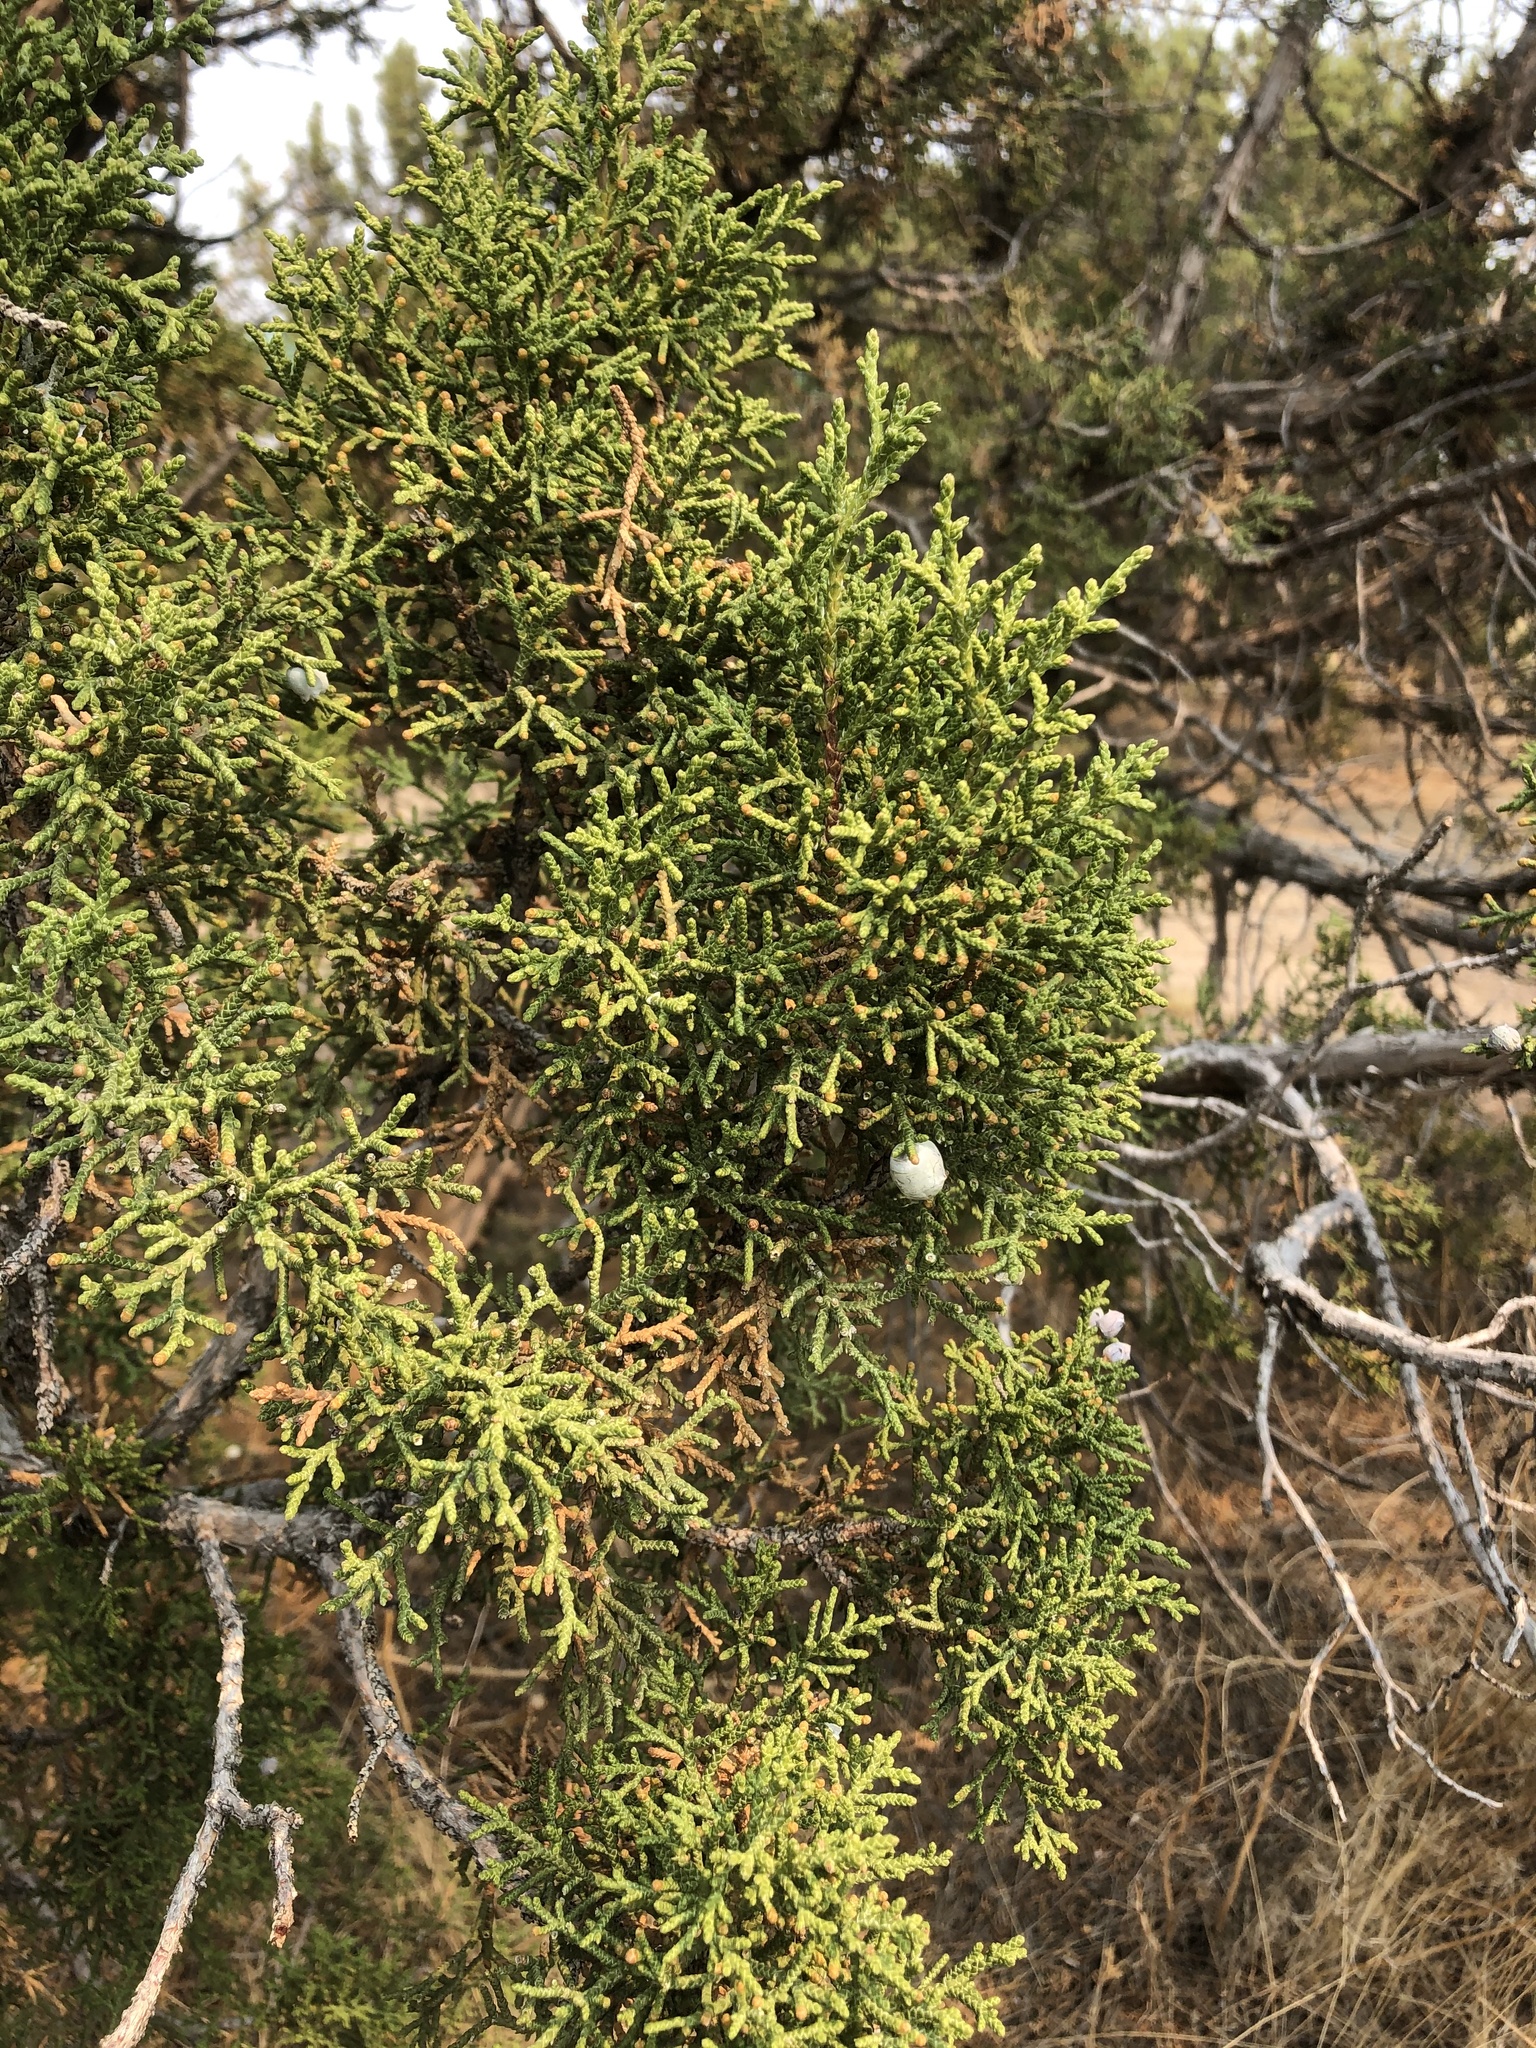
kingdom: Plantae
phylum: Tracheophyta
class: Pinopsida
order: Pinales
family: Cupressaceae
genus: Juniperus
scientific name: Juniperus osteosperma
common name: Utah juniper
